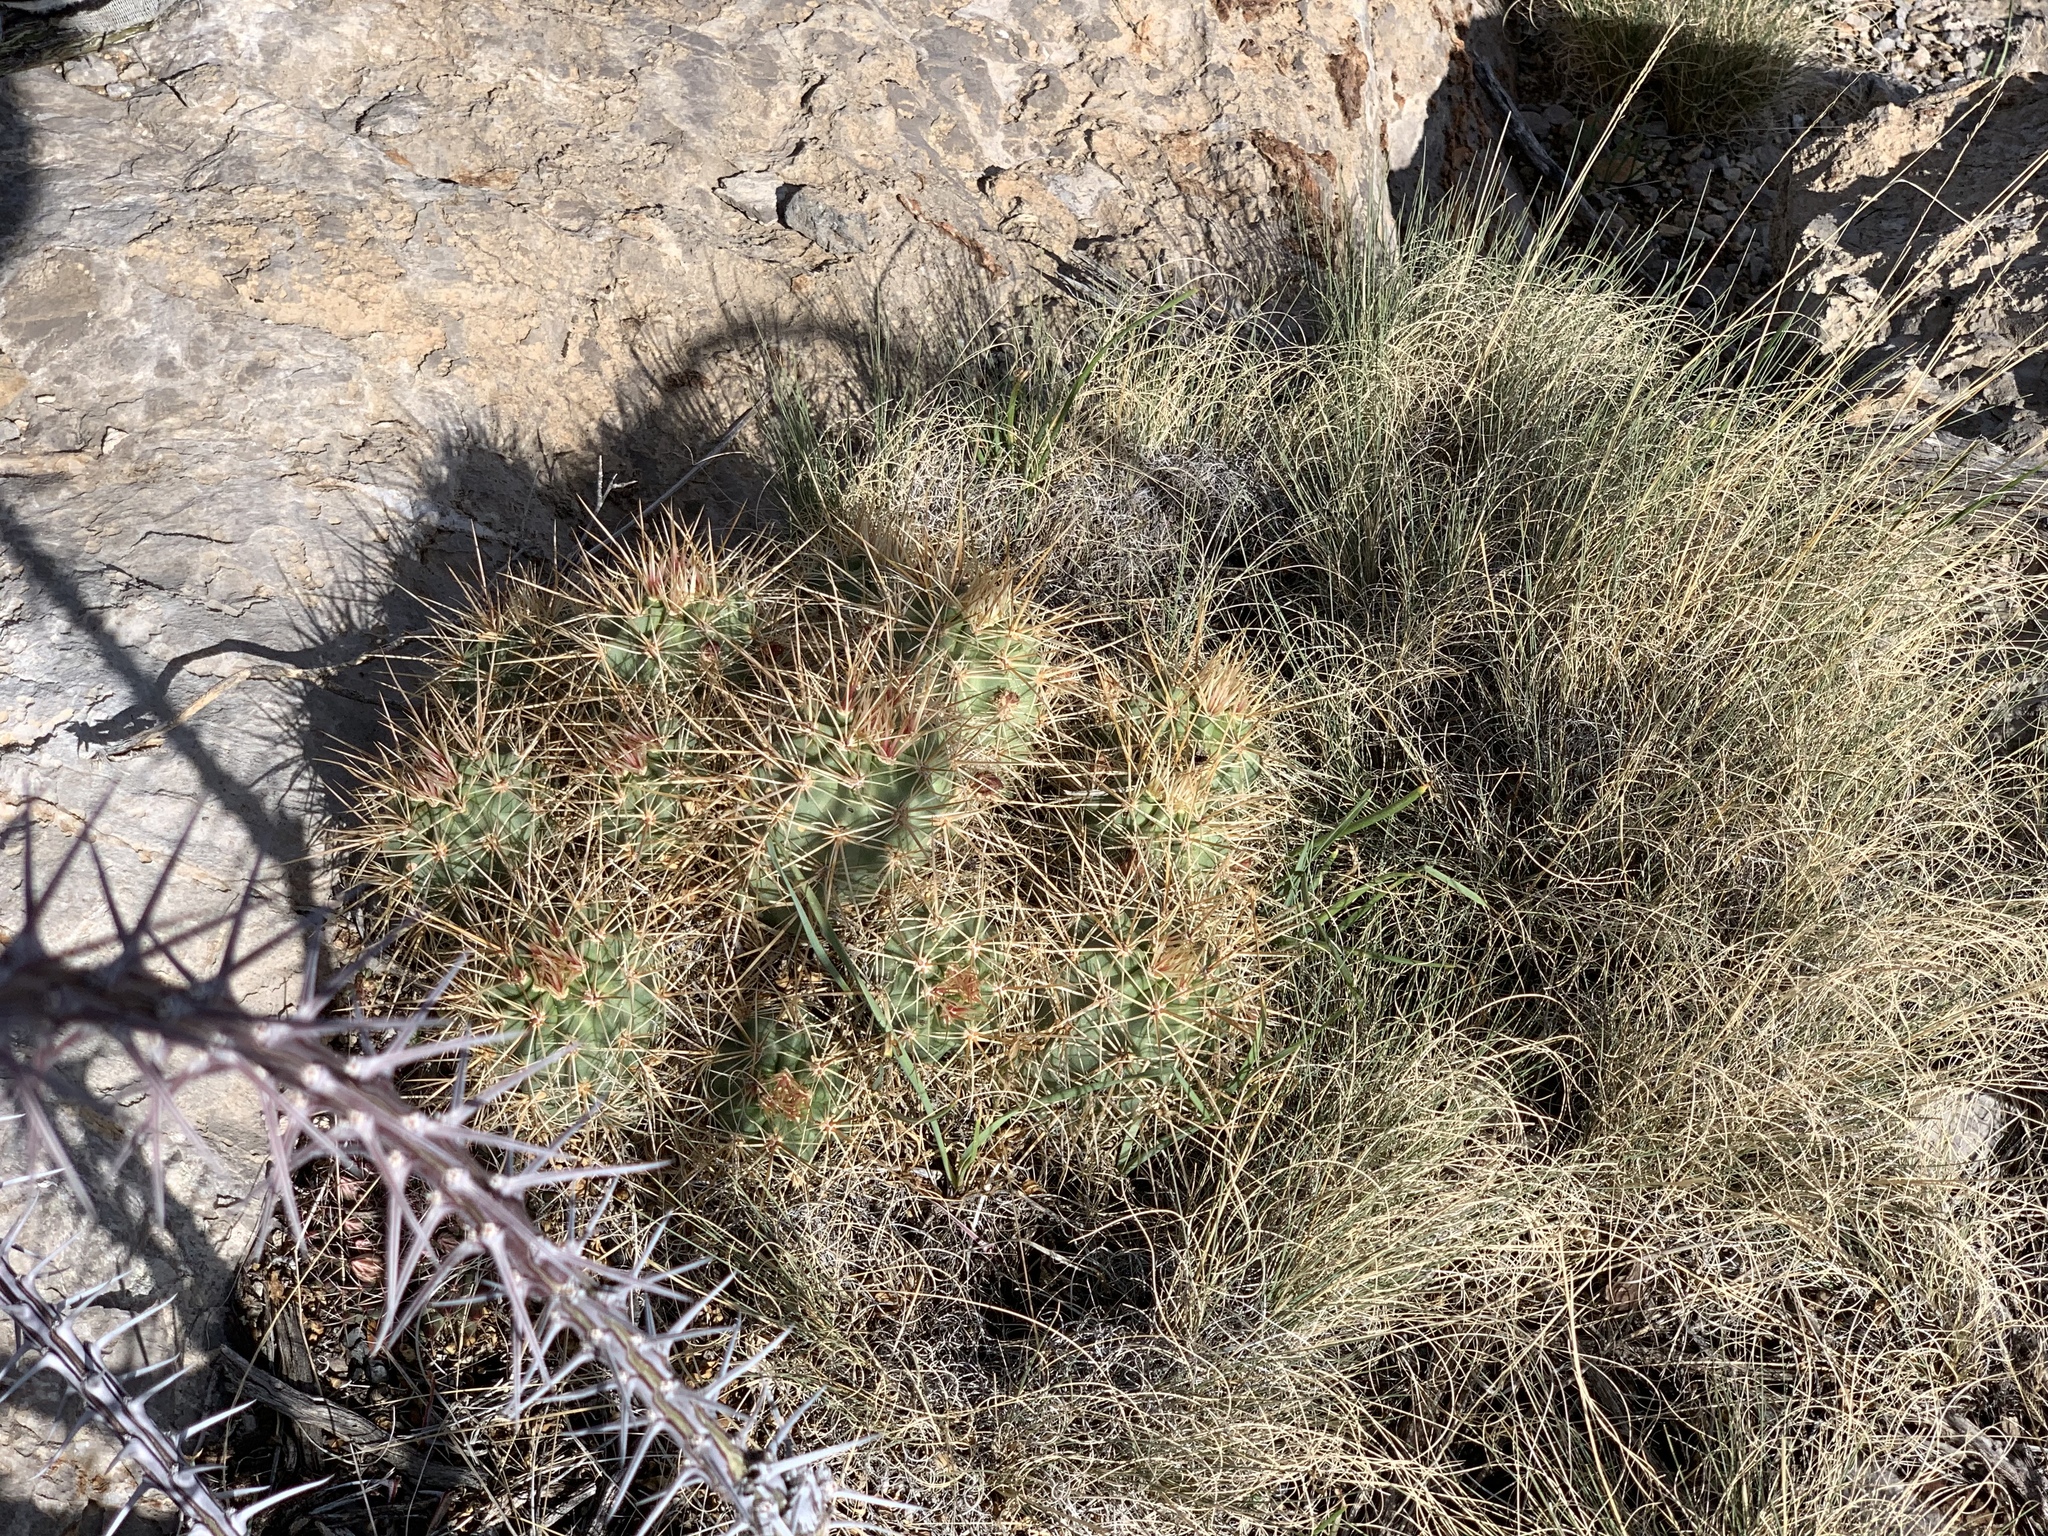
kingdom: Plantae
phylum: Tracheophyta
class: Magnoliopsida
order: Caryophyllales
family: Cactaceae
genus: Echinocereus
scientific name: Echinocereus coccineus
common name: Scarlet hedgehog cactus
